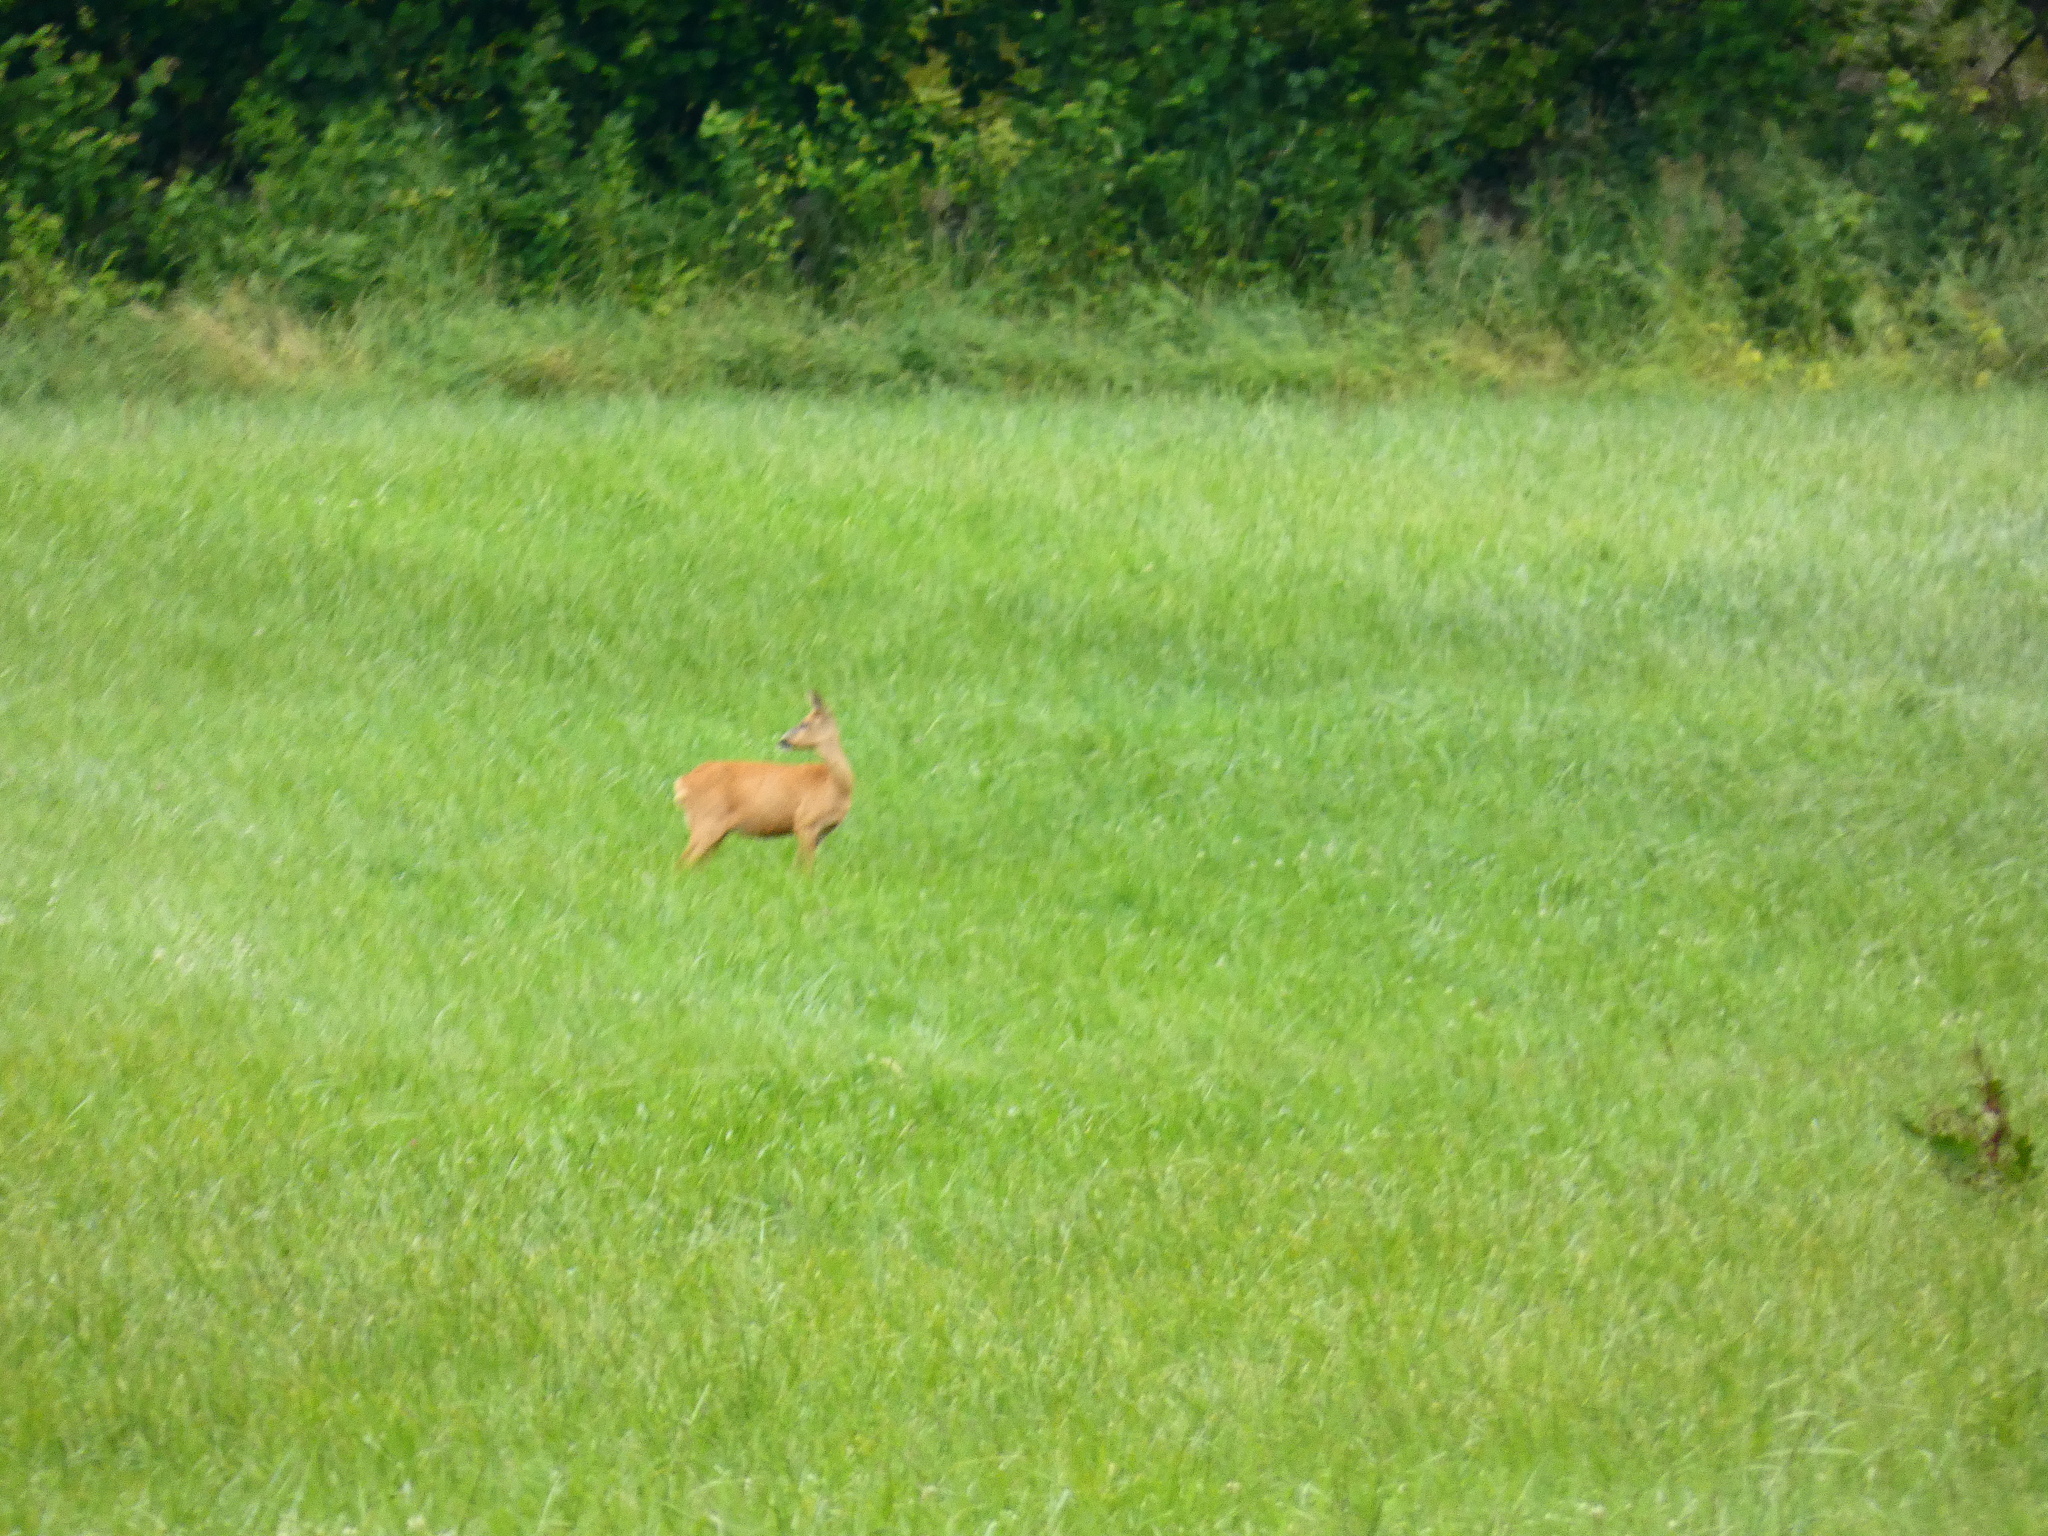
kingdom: Animalia
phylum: Chordata
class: Mammalia
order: Artiodactyla
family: Cervidae
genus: Capreolus
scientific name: Capreolus capreolus
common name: Western roe deer
